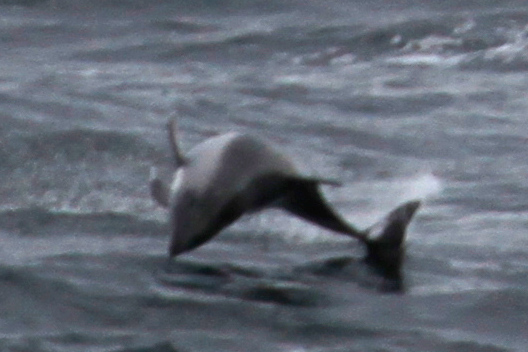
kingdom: Animalia
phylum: Chordata
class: Mammalia
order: Cetacea
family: Delphinidae
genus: Lagenorhynchus
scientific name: Lagenorhynchus australis
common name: Peale's dolphin
